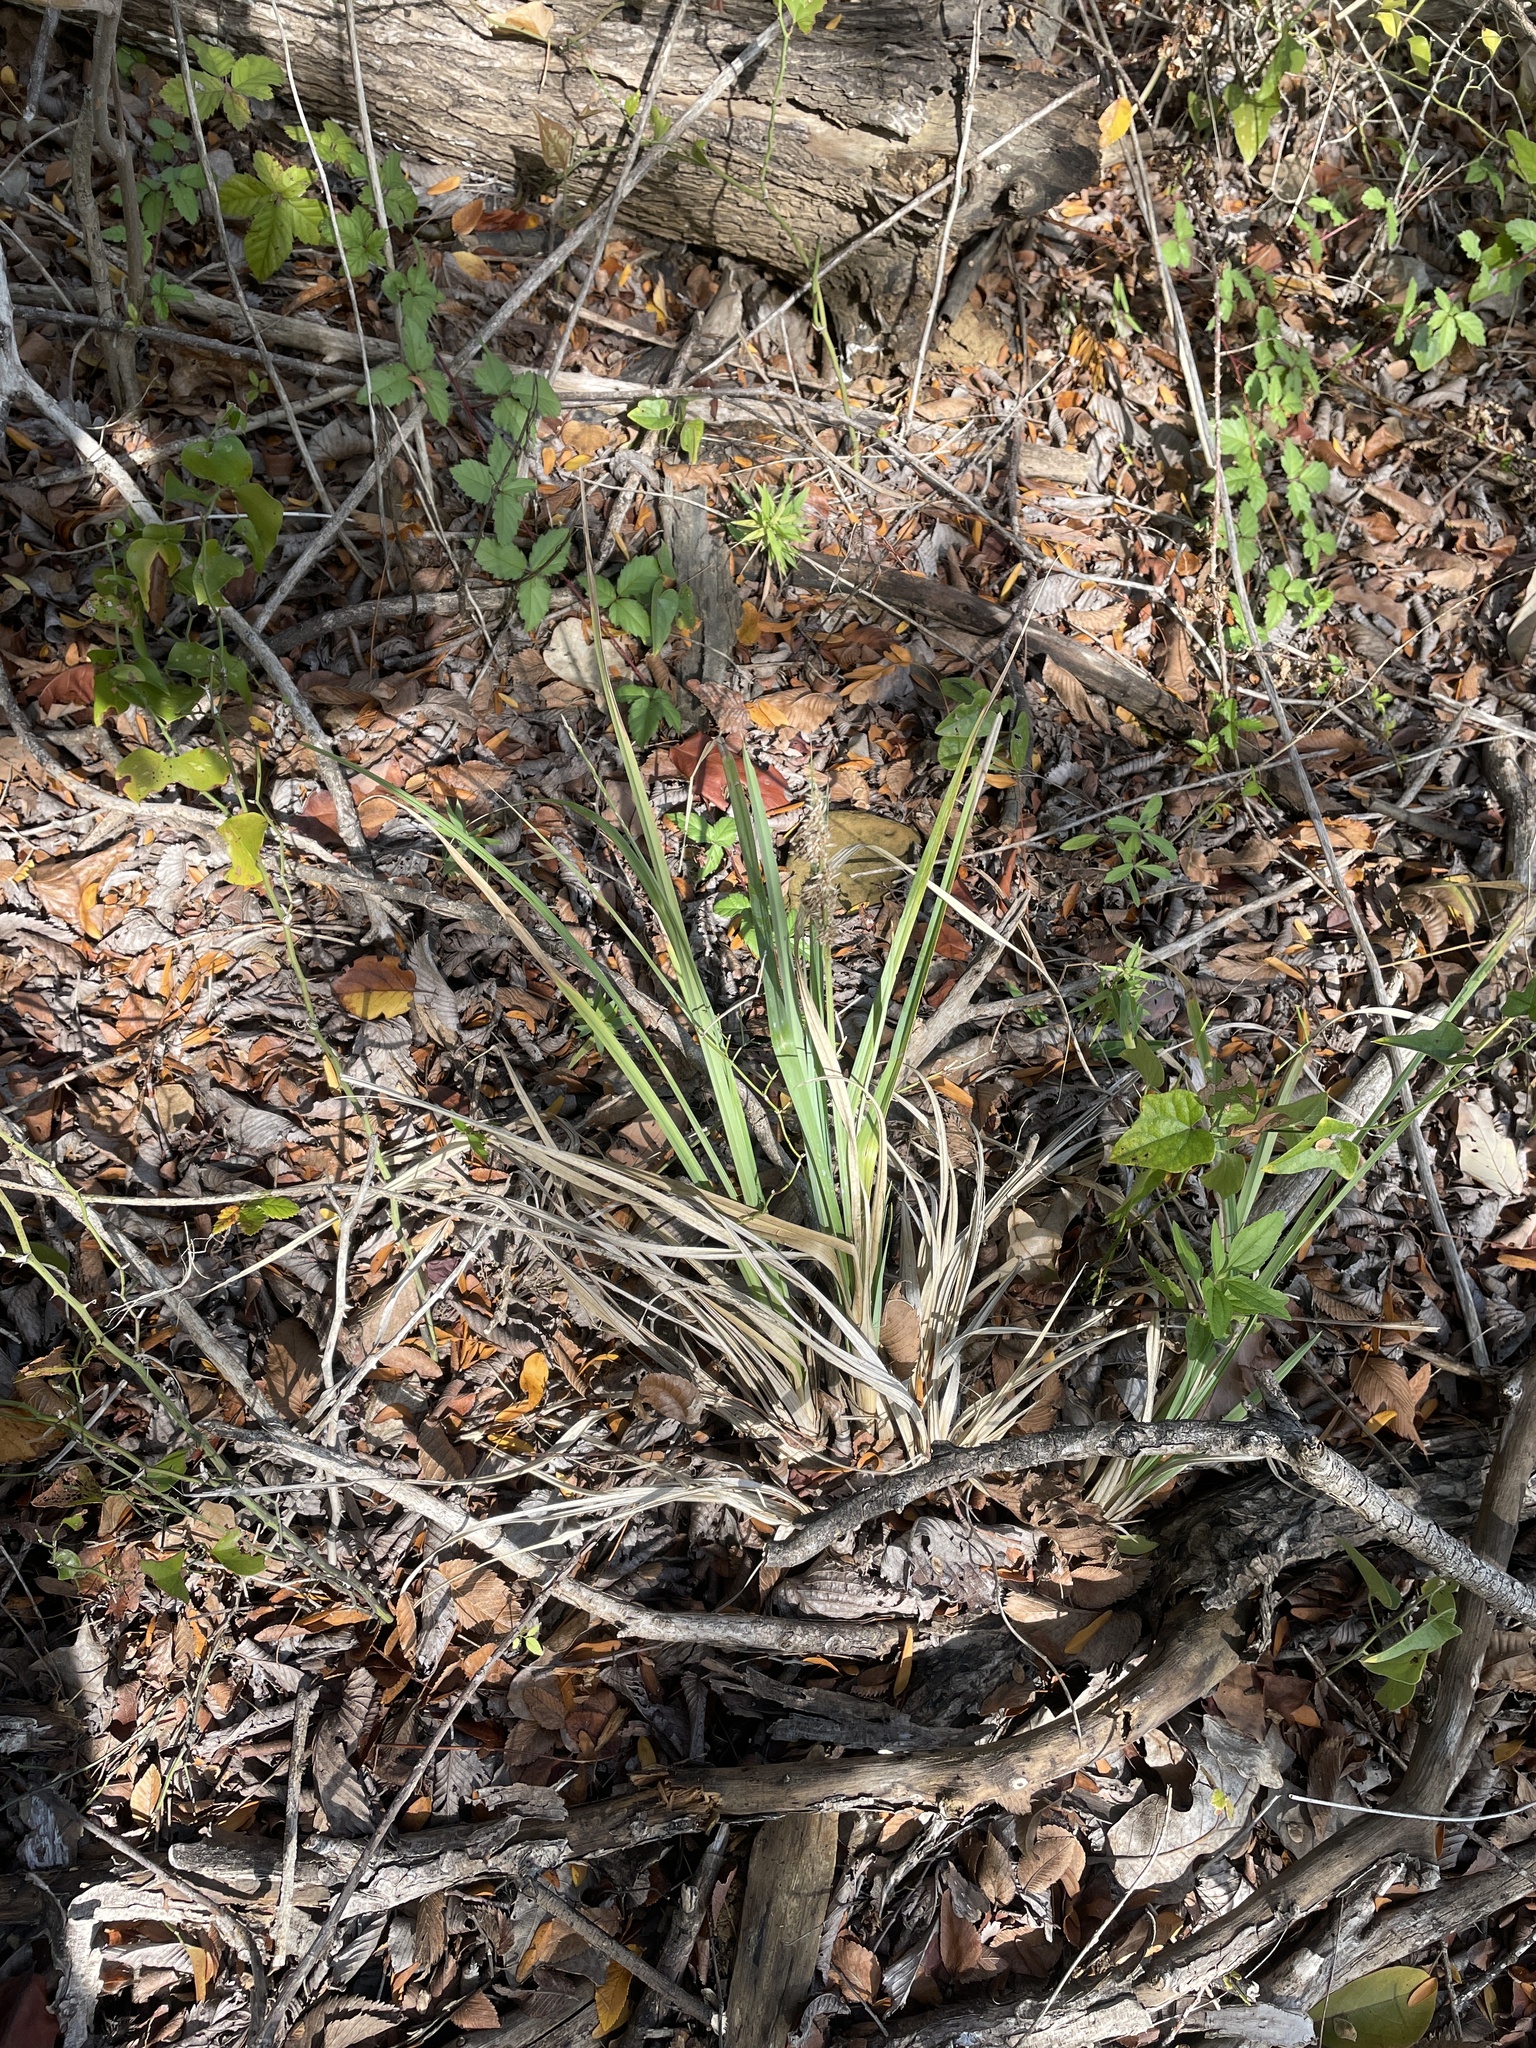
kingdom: Plantae
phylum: Tracheophyta
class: Liliopsida
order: Poales
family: Cyperaceae
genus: Carex
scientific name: Carex crus-corvi
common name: Crow-spur sedge
